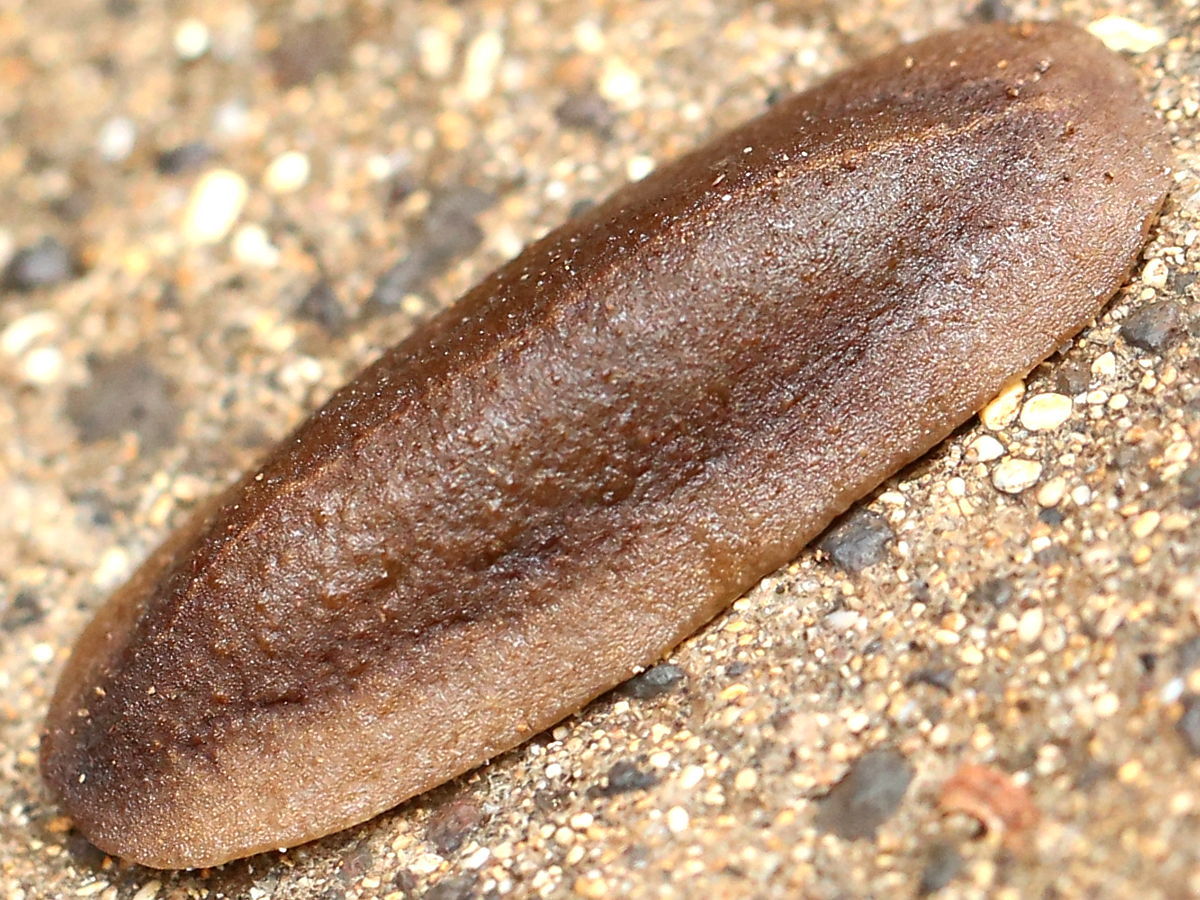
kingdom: Animalia
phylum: Mollusca
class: Gastropoda
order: Systellommatophora
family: Veronicellidae
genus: Veronicella
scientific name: Veronicella cubensis
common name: Two striped slug
